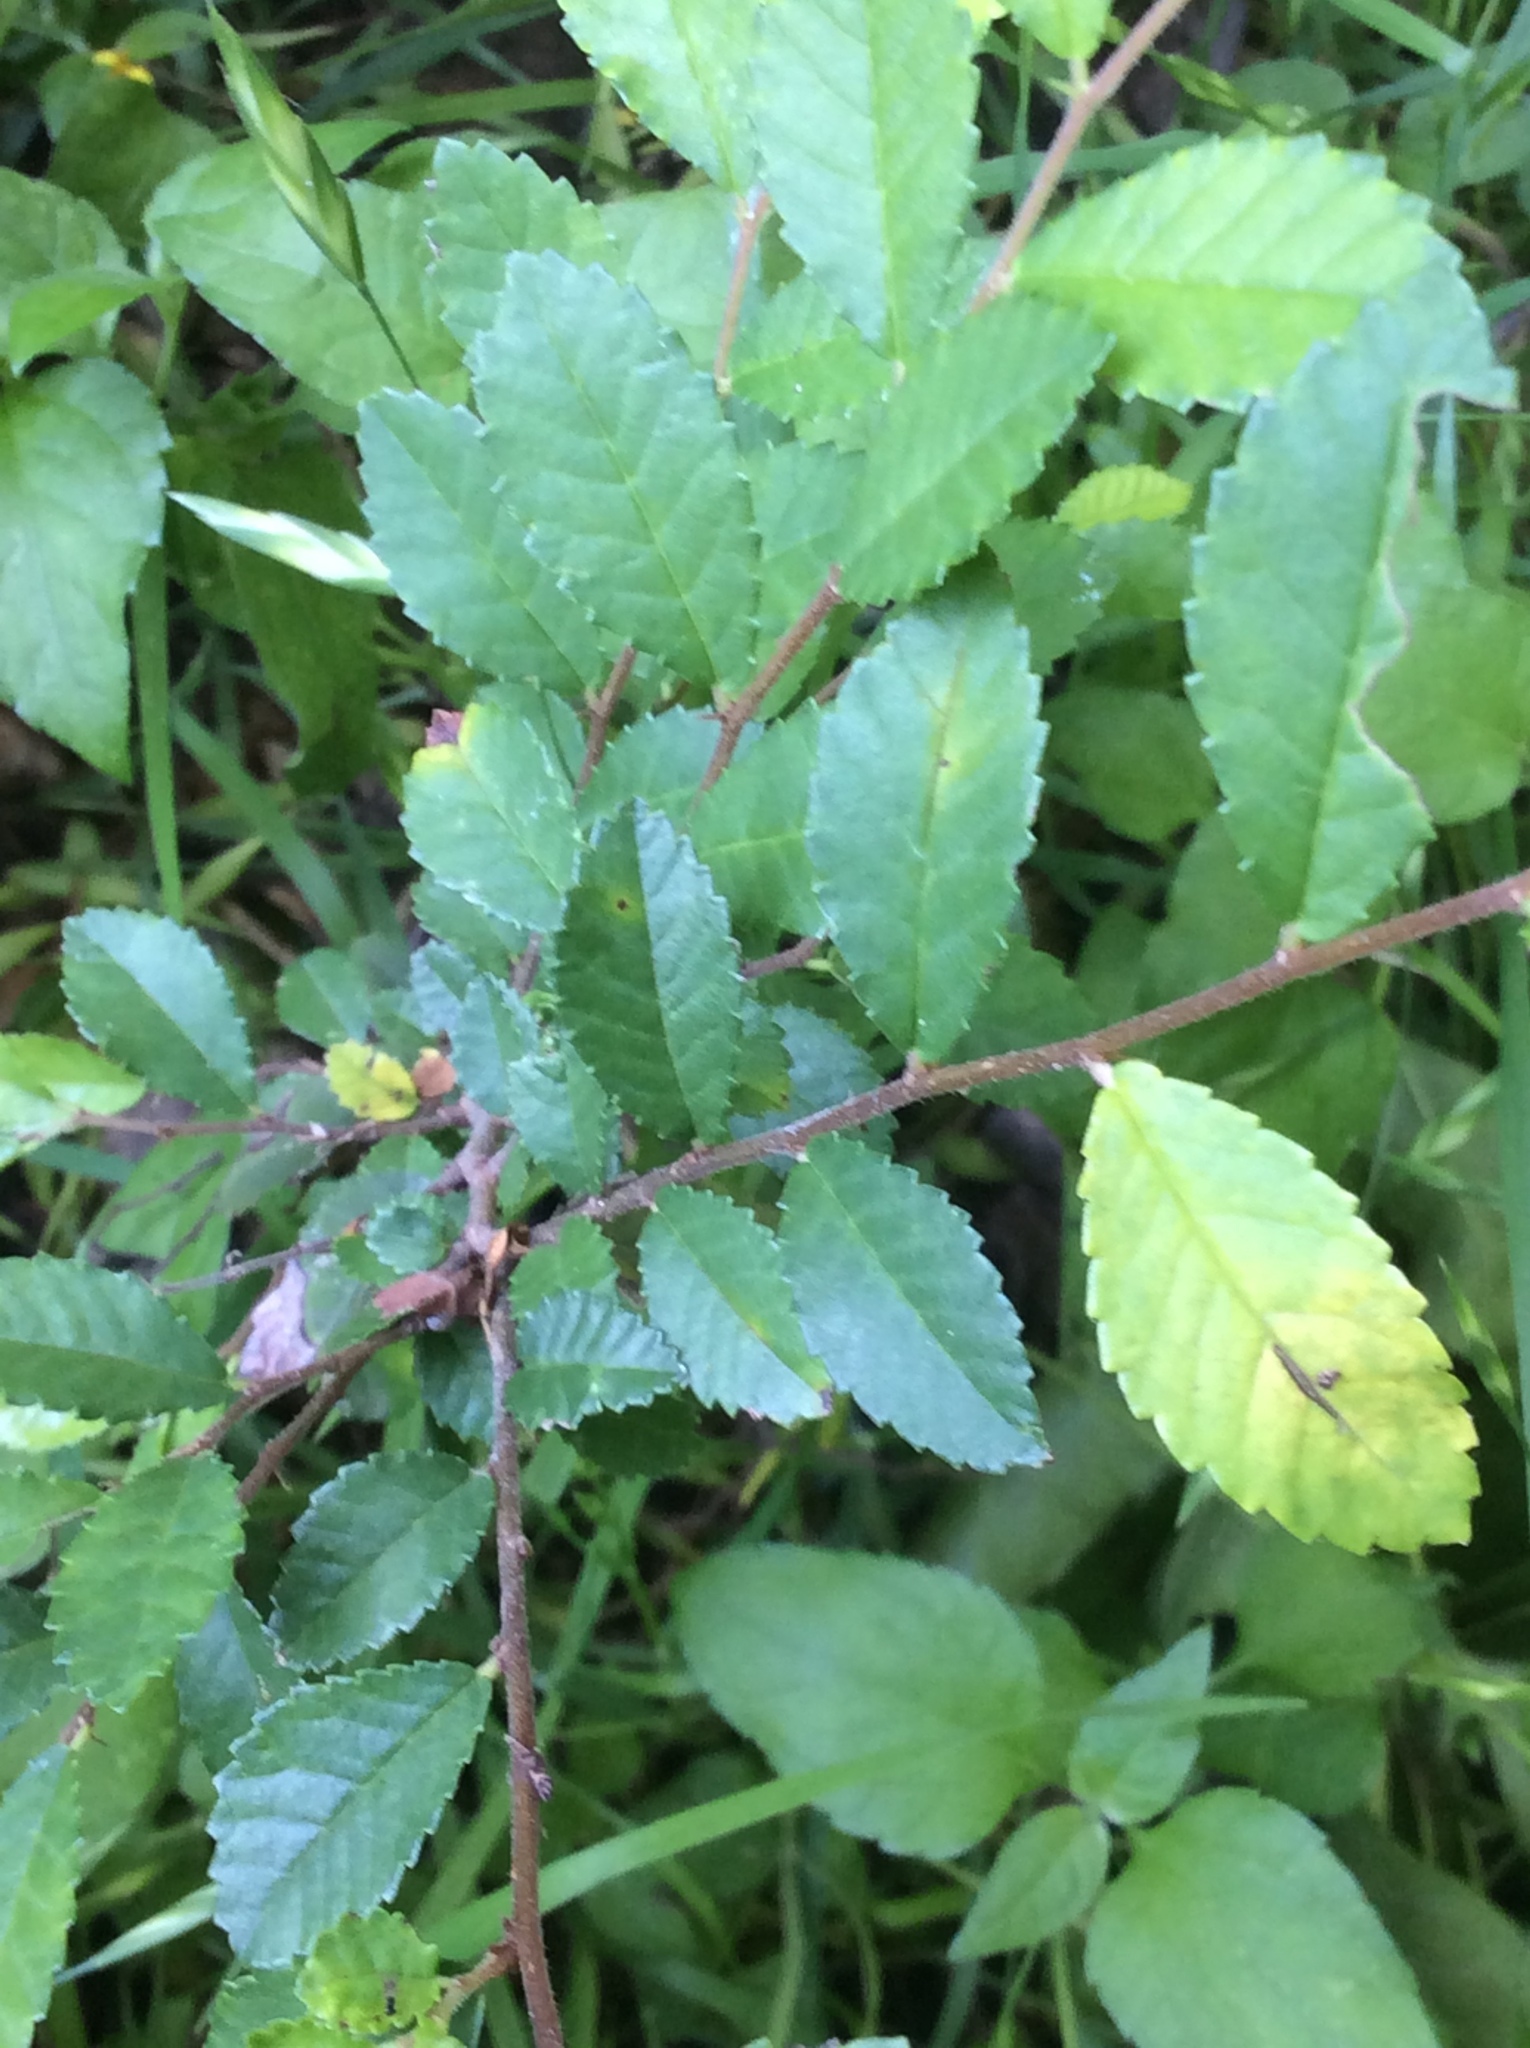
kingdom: Plantae
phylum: Tracheophyta
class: Magnoliopsida
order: Rosales
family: Ulmaceae
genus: Ulmus
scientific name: Ulmus crassifolia
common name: Basket elm
